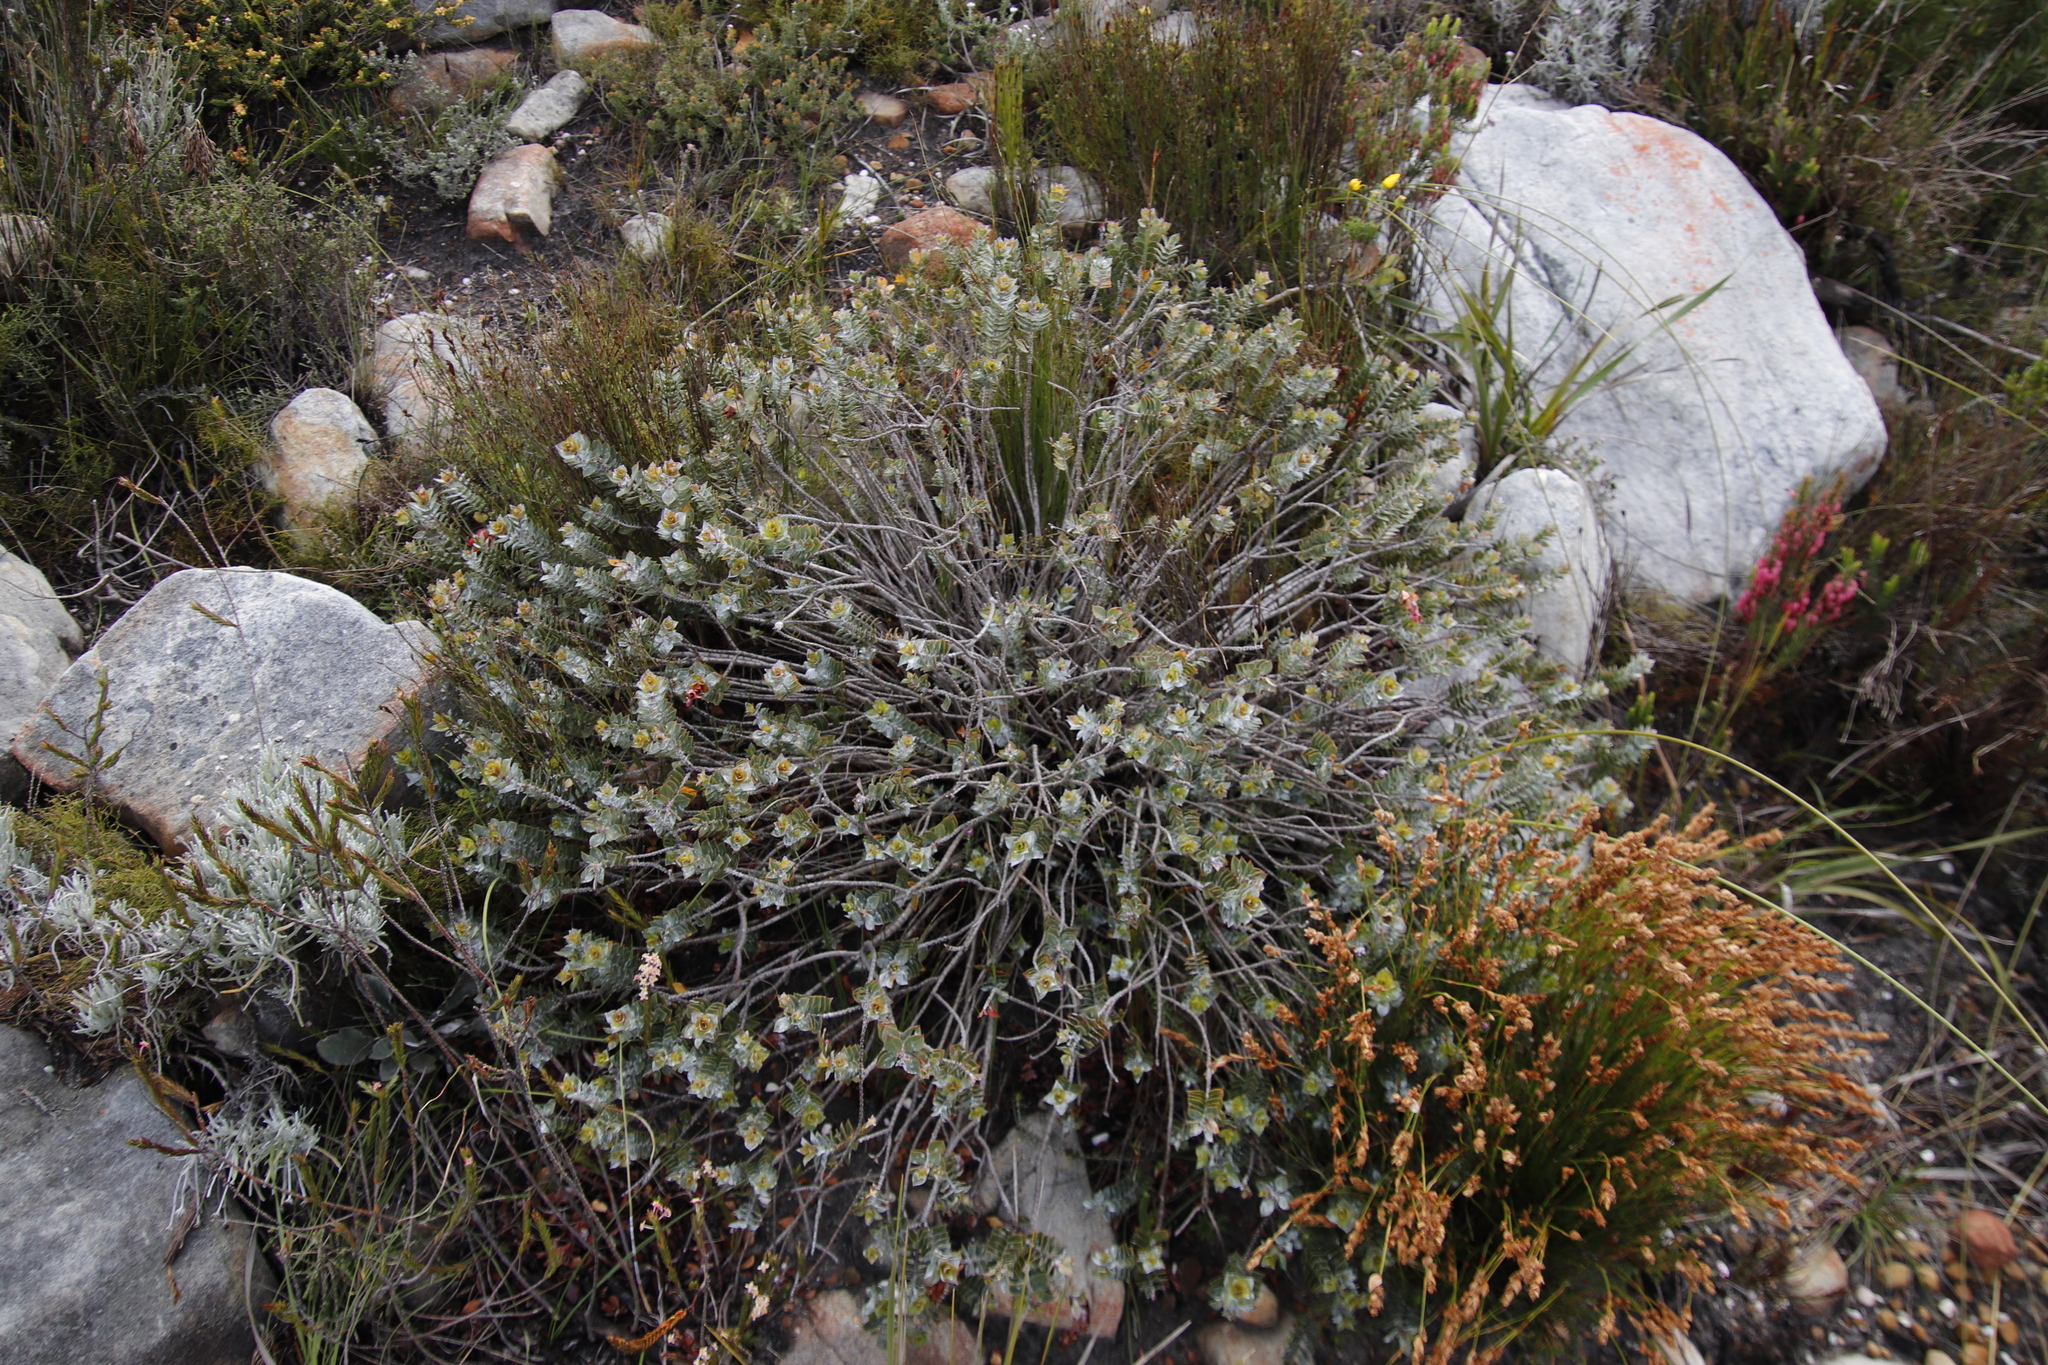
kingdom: Plantae
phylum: Tracheophyta
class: Magnoliopsida
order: Myrtales
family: Penaeaceae
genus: Saltera
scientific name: Saltera sarcocolla
